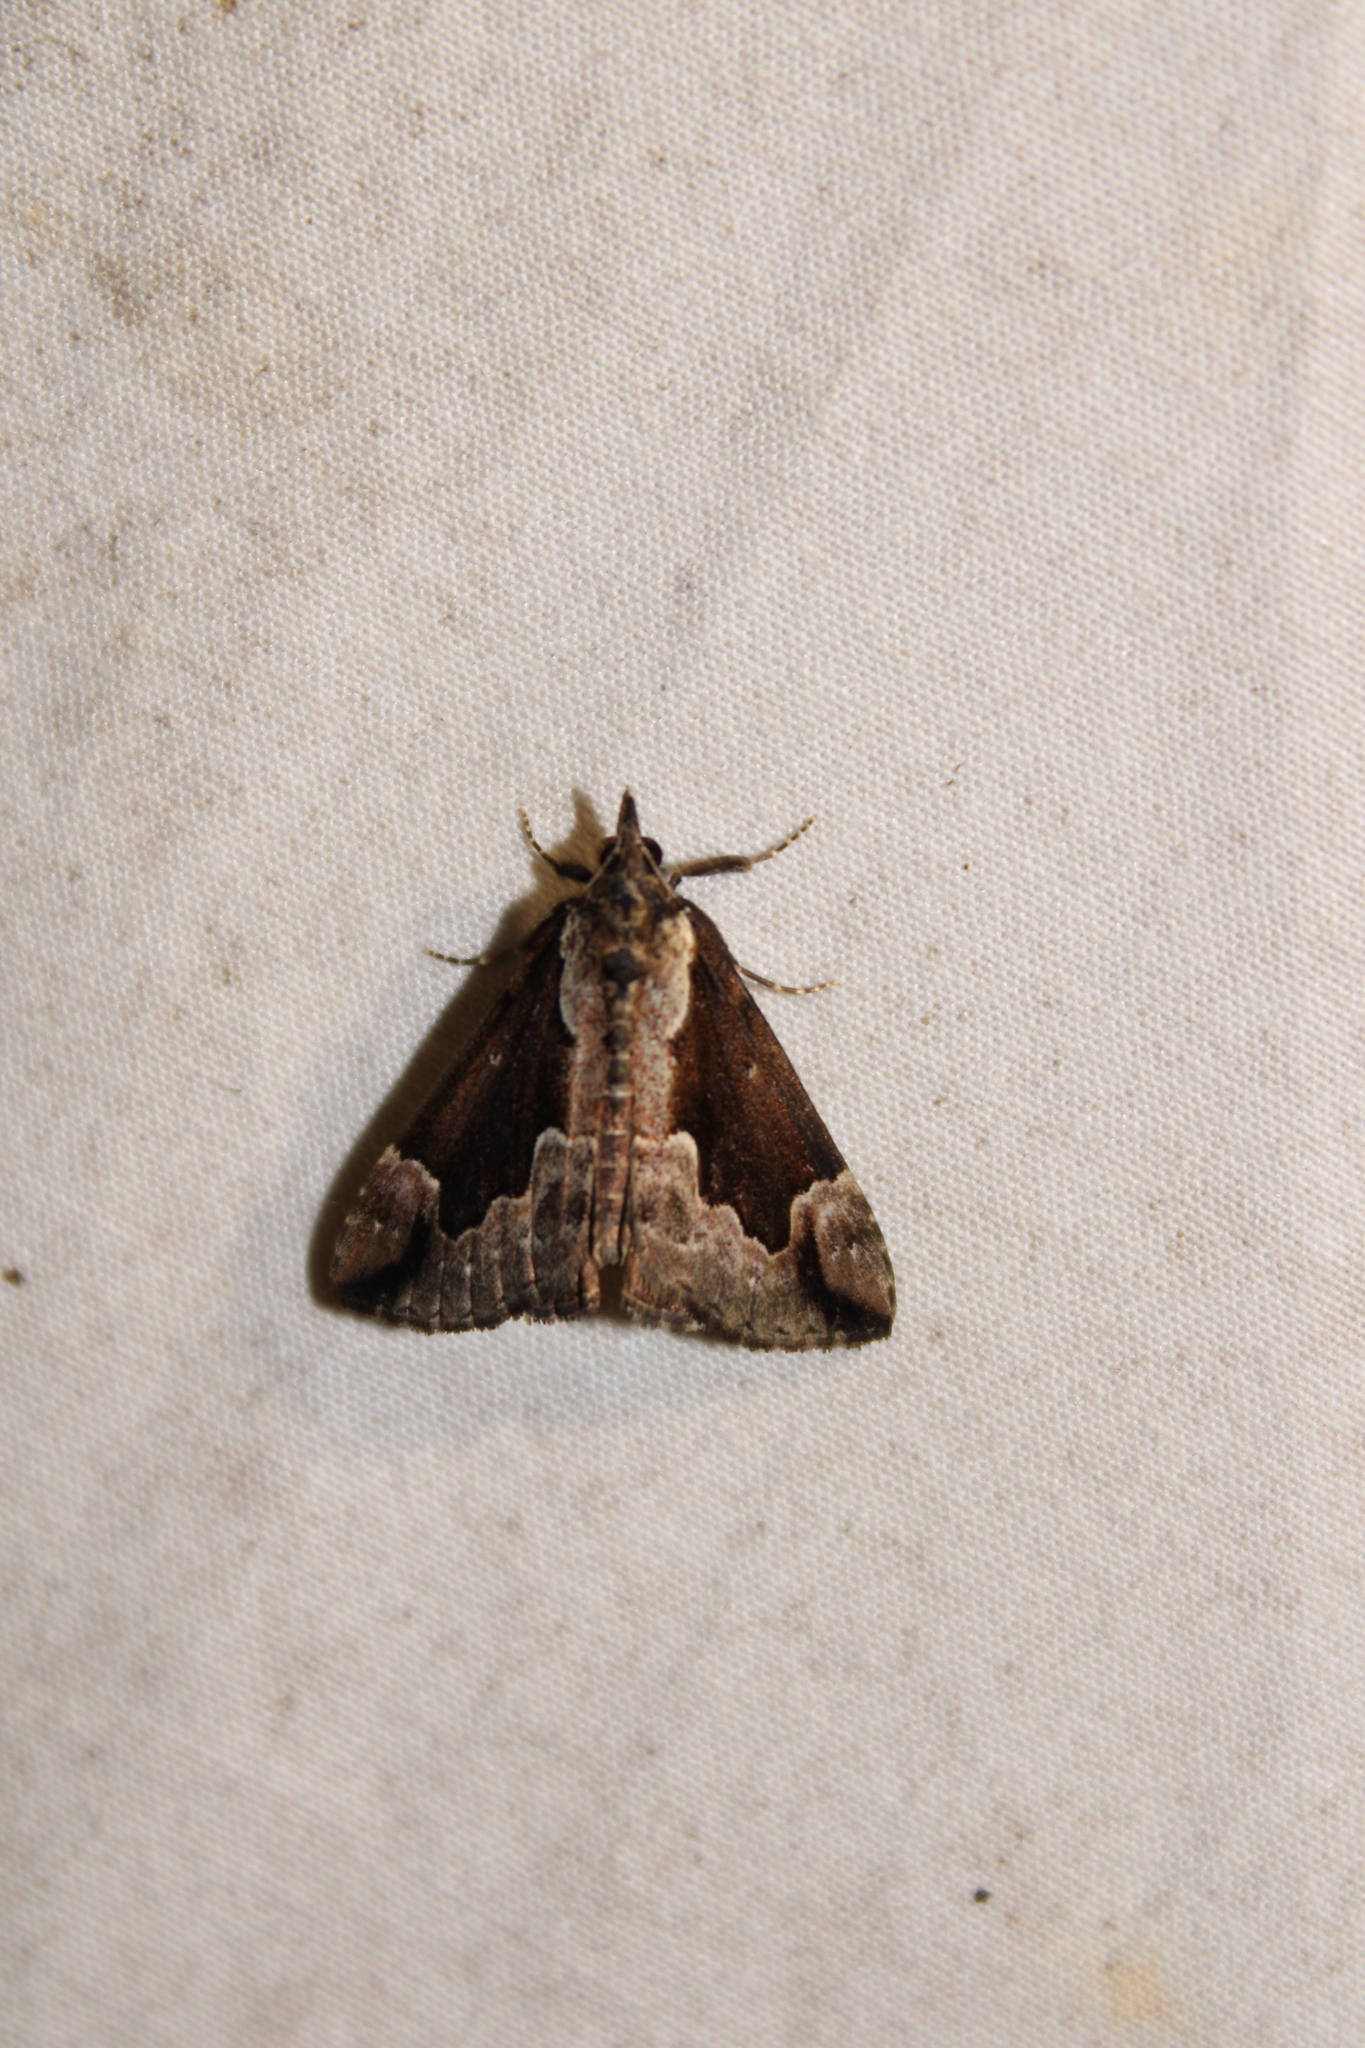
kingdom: Animalia
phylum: Arthropoda
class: Insecta
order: Lepidoptera
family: Erebidae
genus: Hypena
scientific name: Hypena baltimoralis
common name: Baltimore snout
